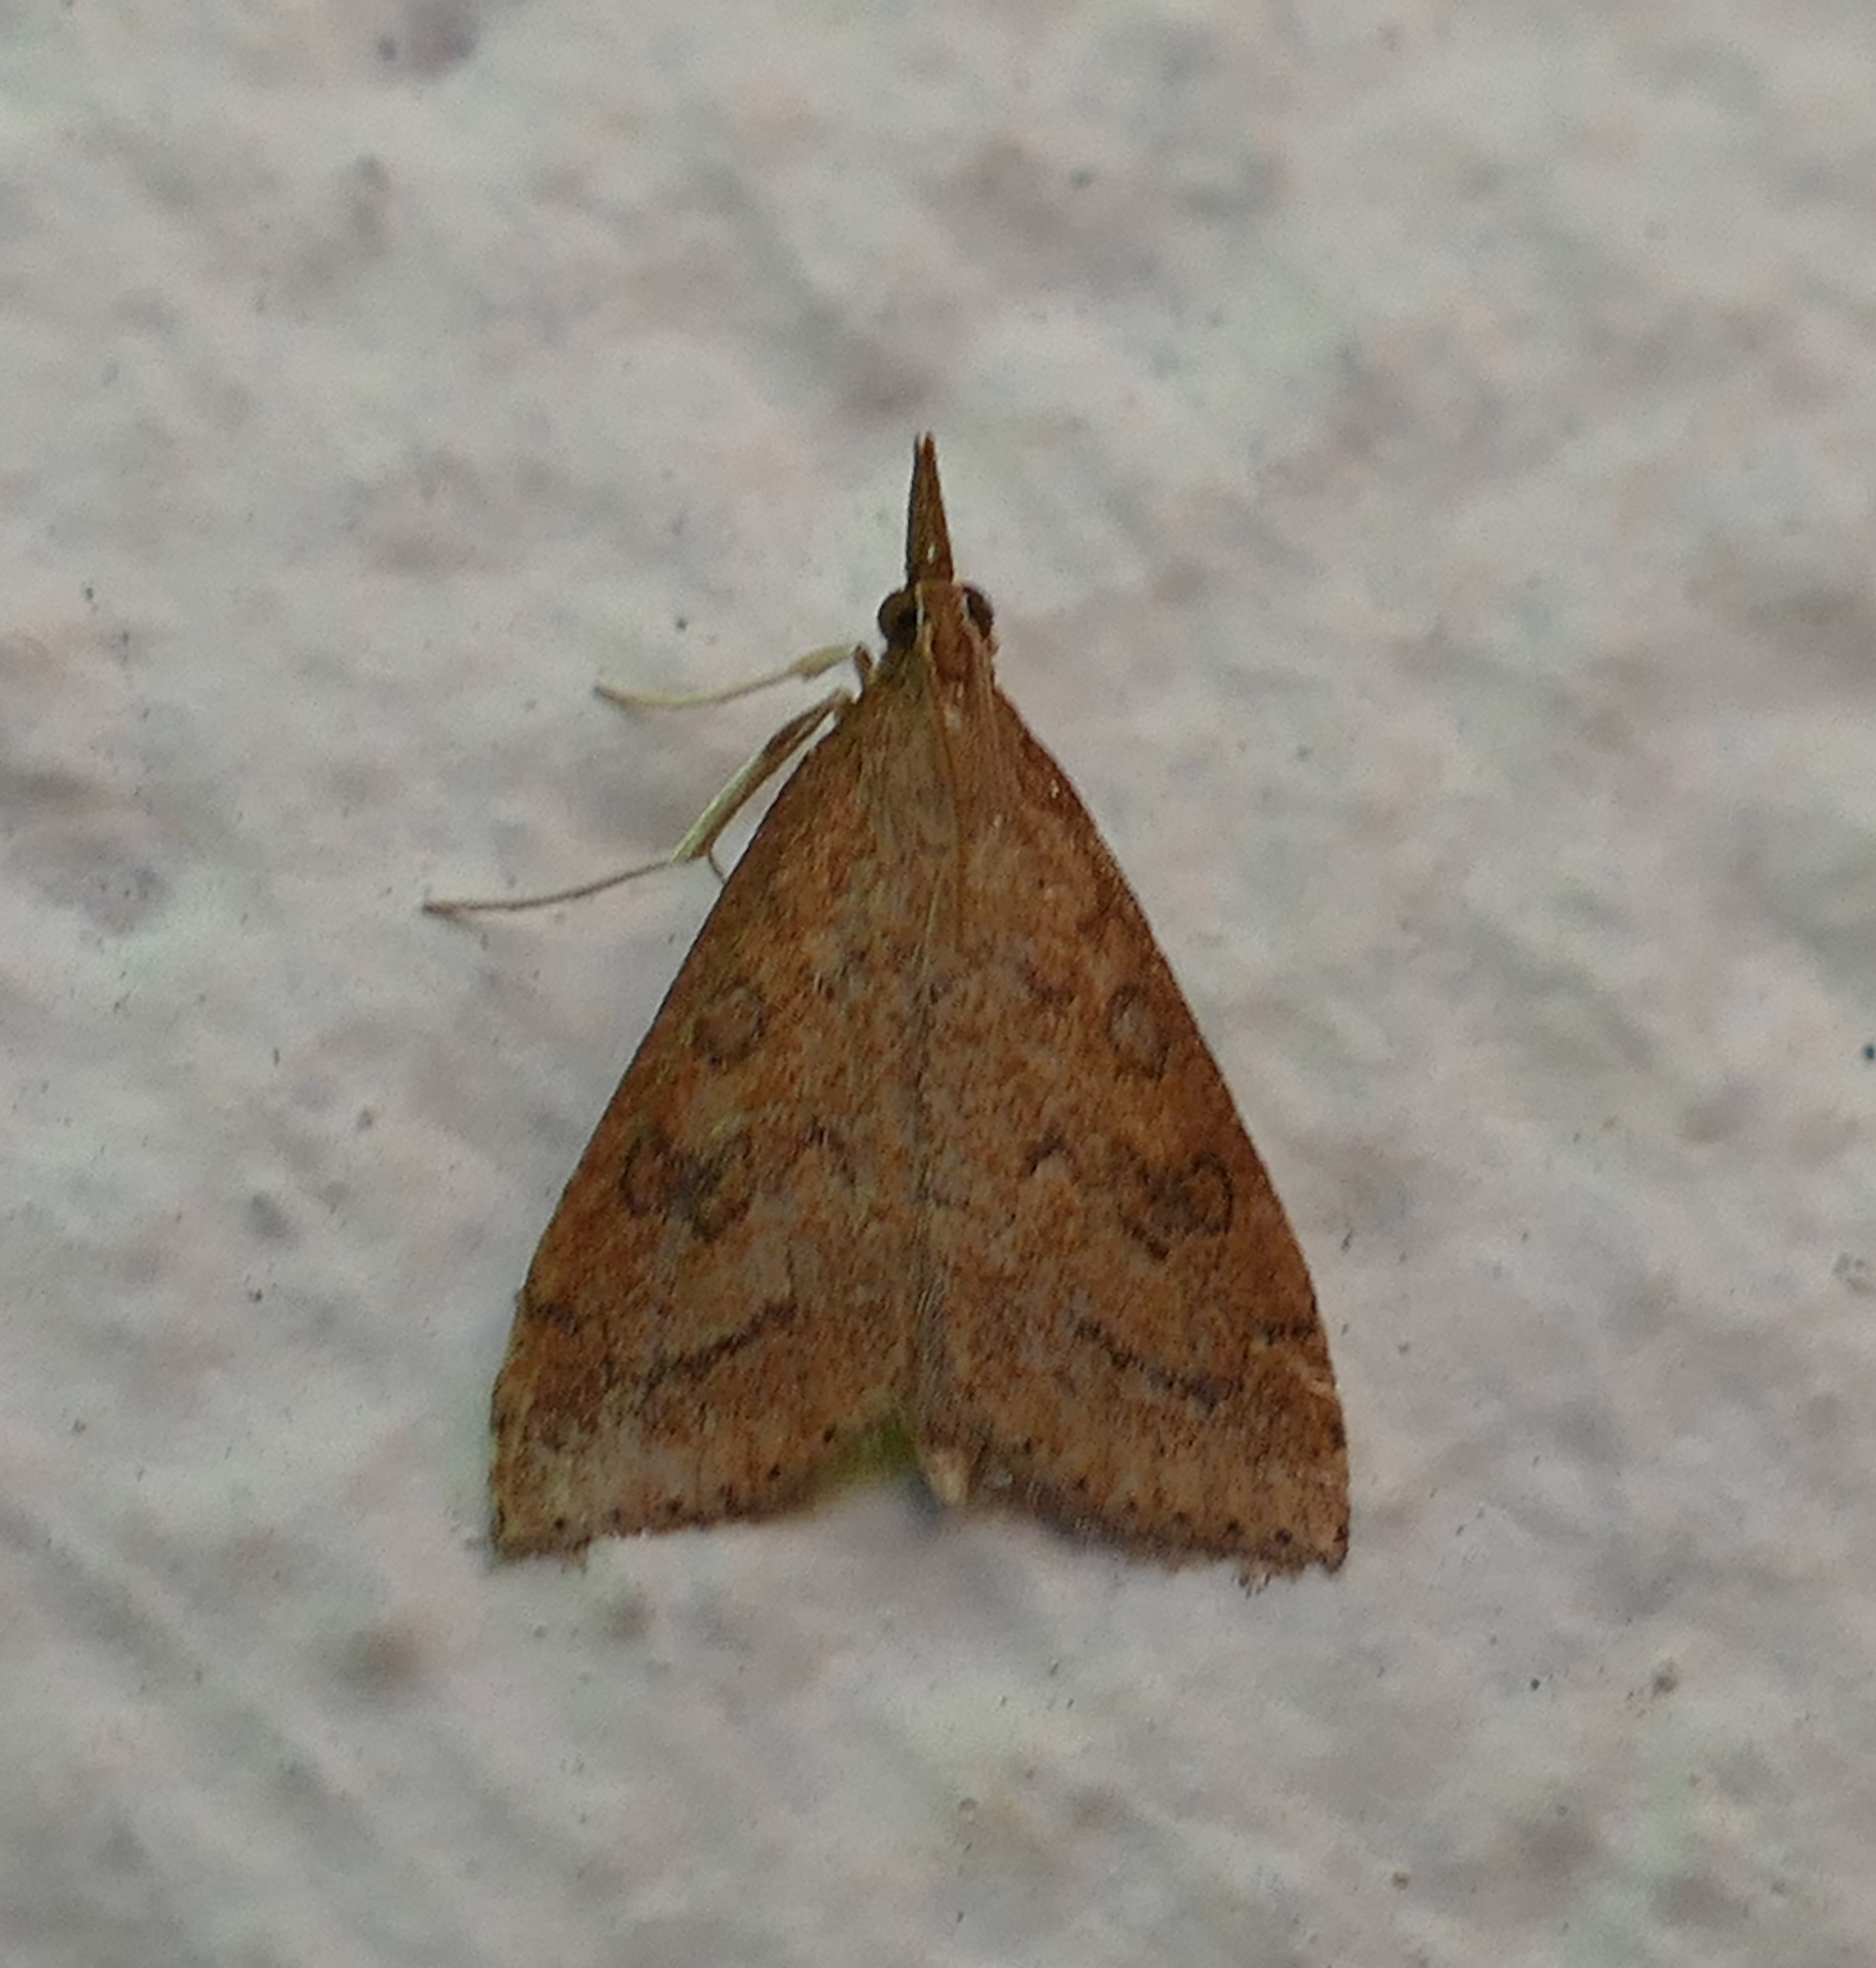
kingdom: Animalia
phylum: Arthropoda
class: Insecta
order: Lepidoptera
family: Crambidae
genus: Udea
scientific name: Udea rubigalis
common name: Celery leaftier moth
